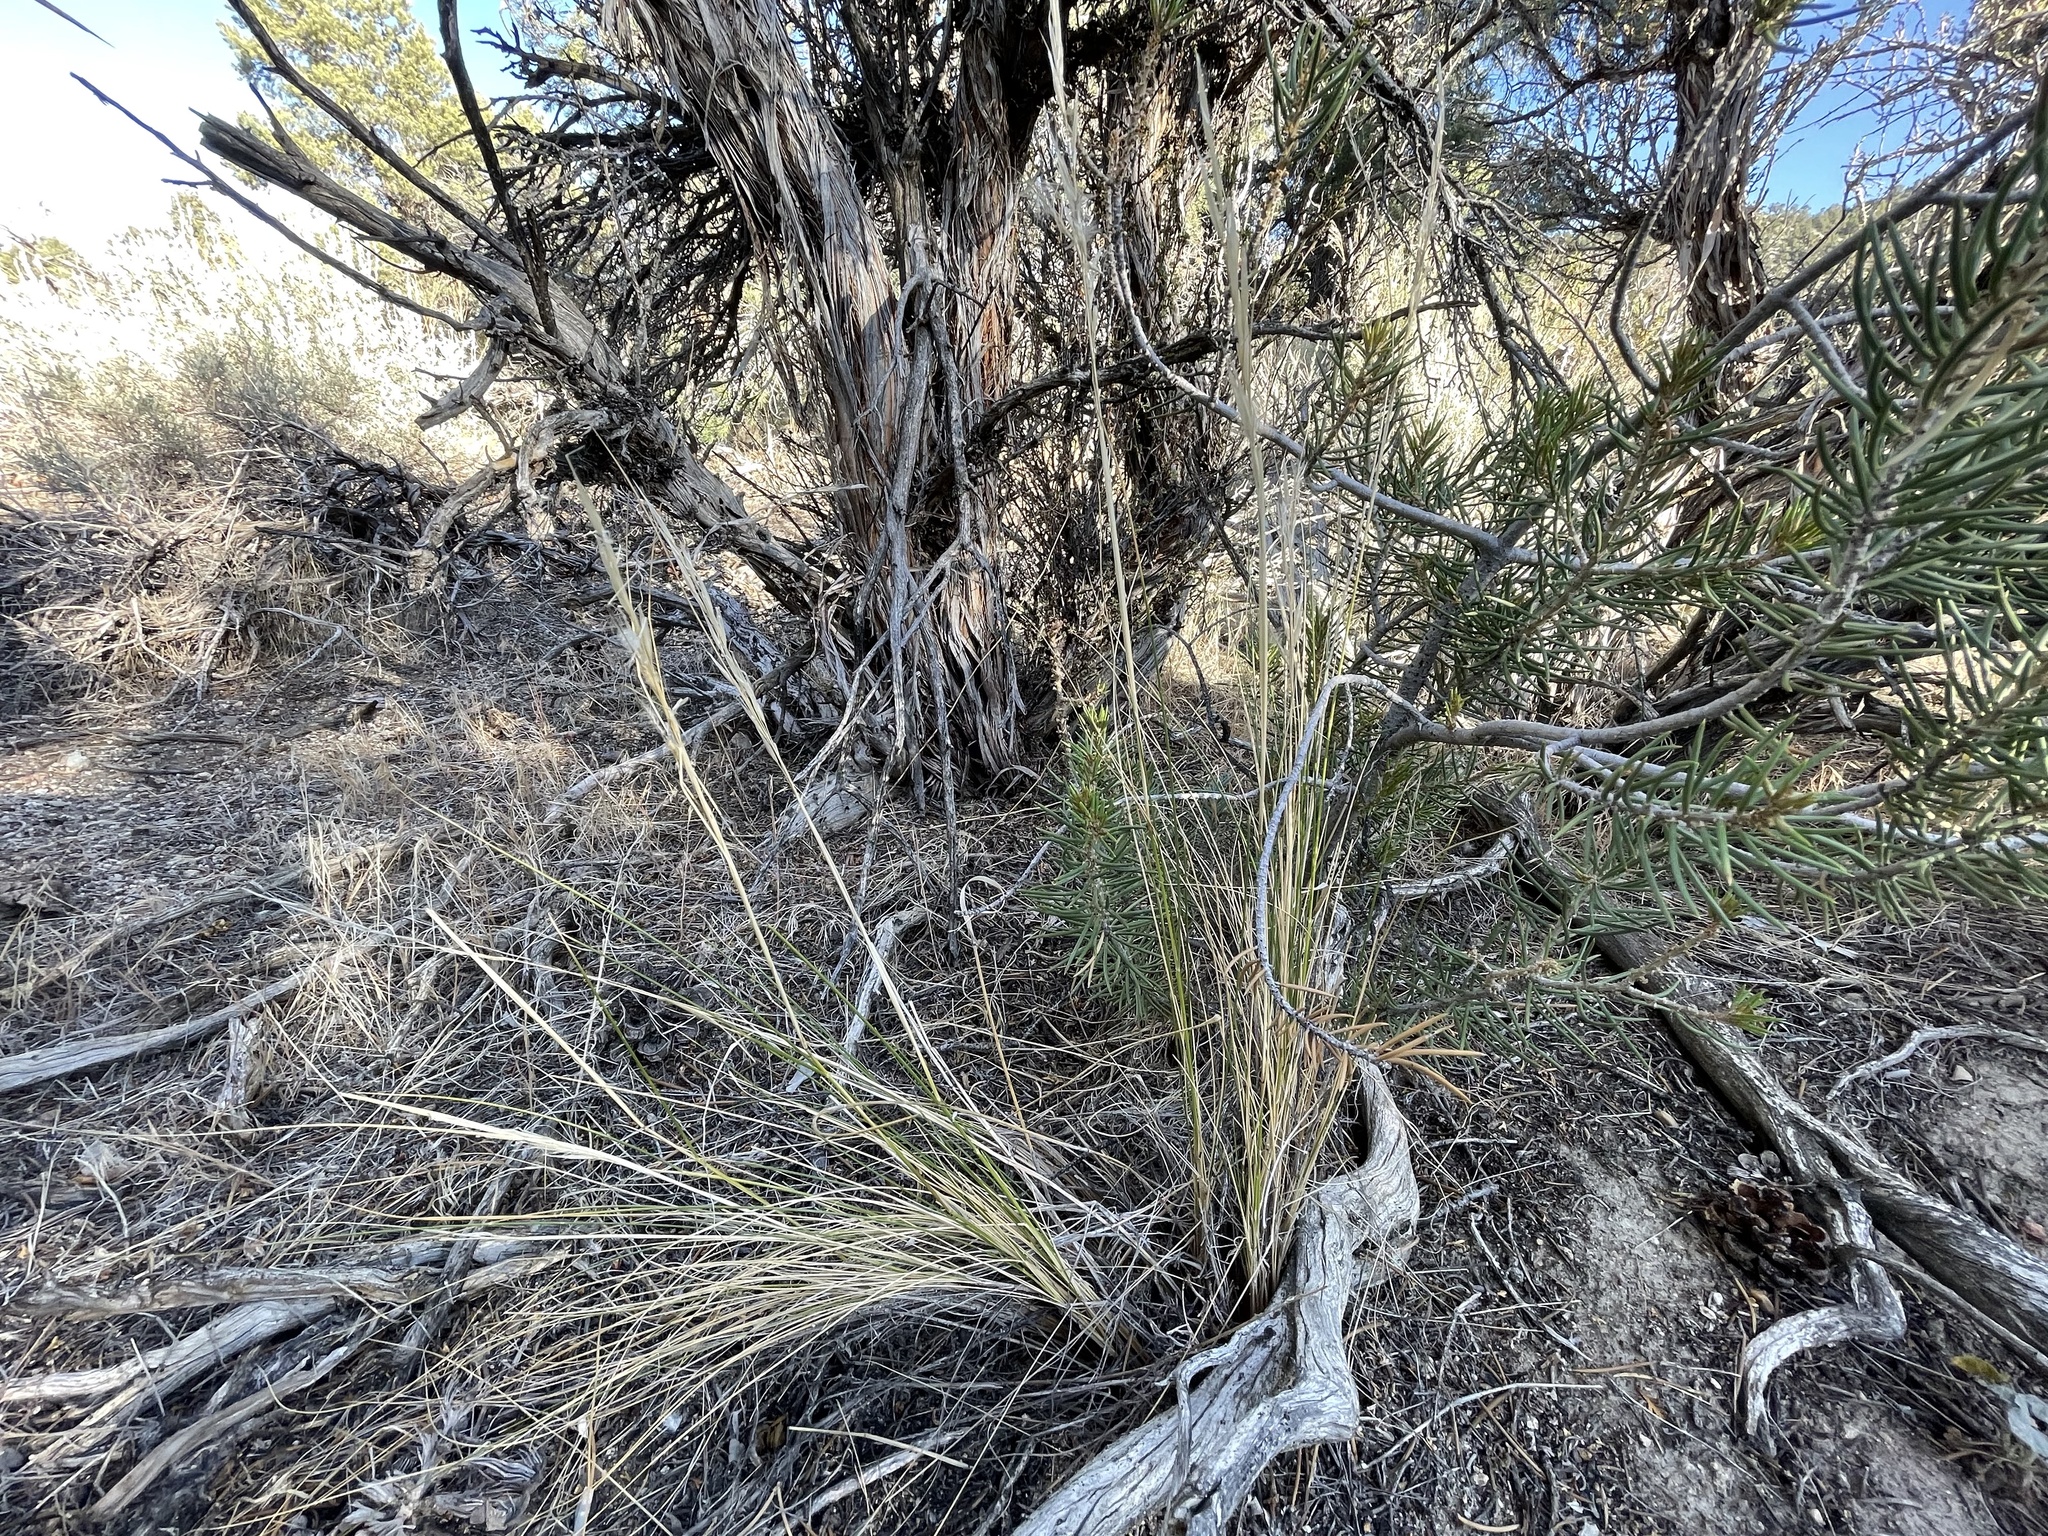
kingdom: Plantae
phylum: Tracheophyta
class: Liliopsida
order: Poales
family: Poaceae
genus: Pappostipa
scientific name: Pappostipa speciosa
